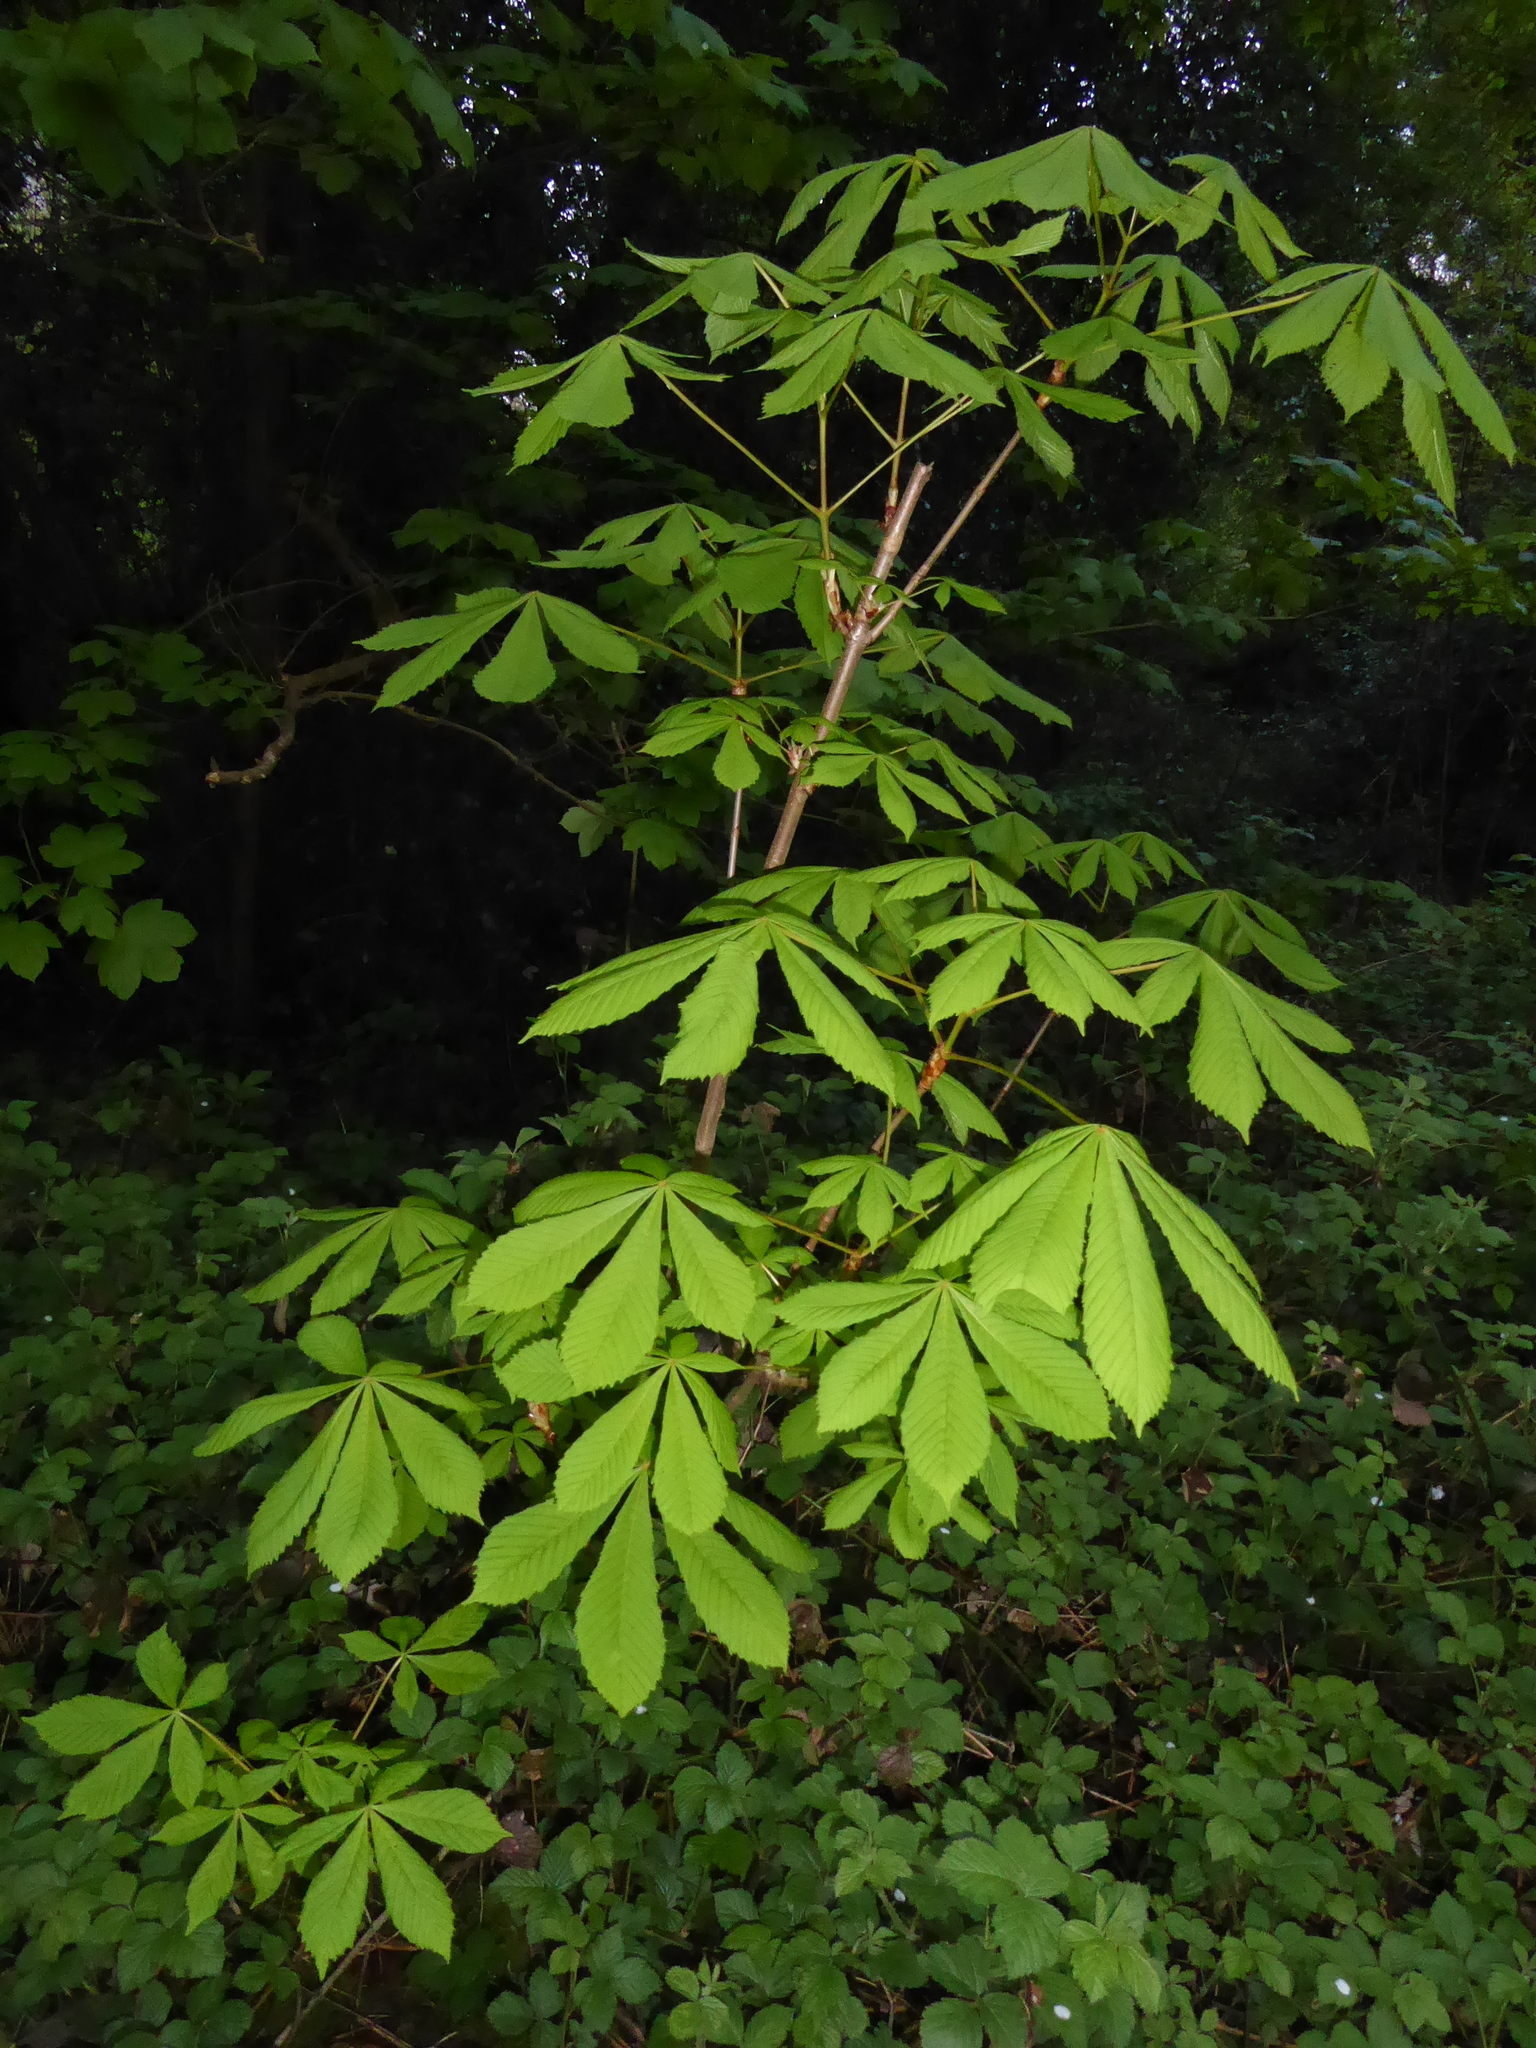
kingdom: Plantae
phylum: Tracheophyta
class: Magnoliopsida
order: Sapindales
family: Sapindaceae
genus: Aesculus
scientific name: Aesculus hippocastanum
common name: Horse-chestnut
